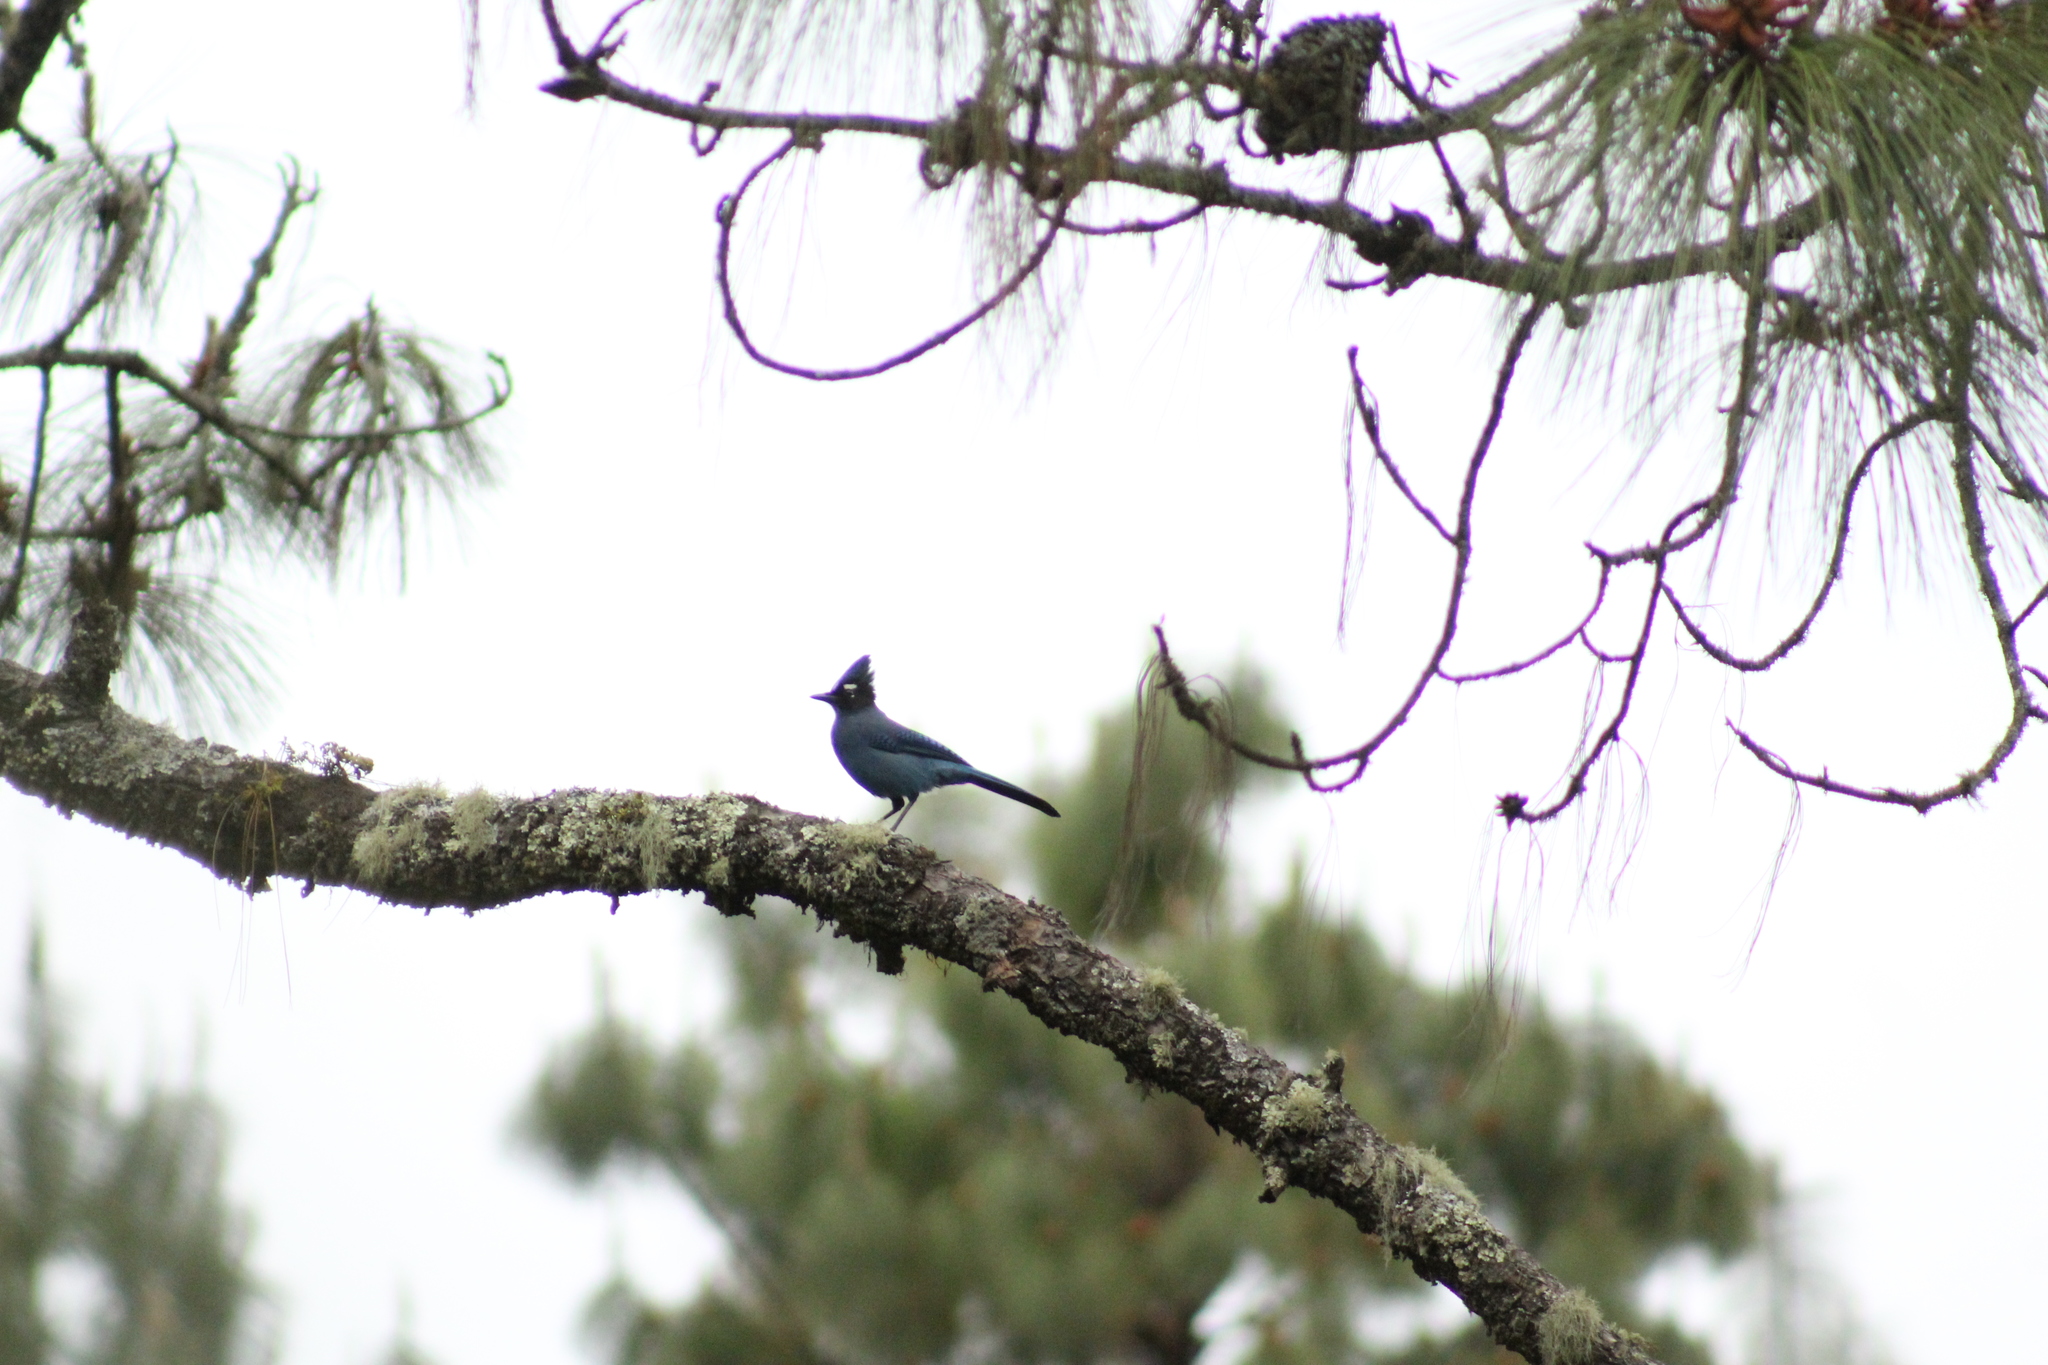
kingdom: Animalia
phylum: Chordata
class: Aves
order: Passeriformes
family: Corvidae
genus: Cyanocitta
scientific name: Cyanocitta stelleri
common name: Steller's jay
